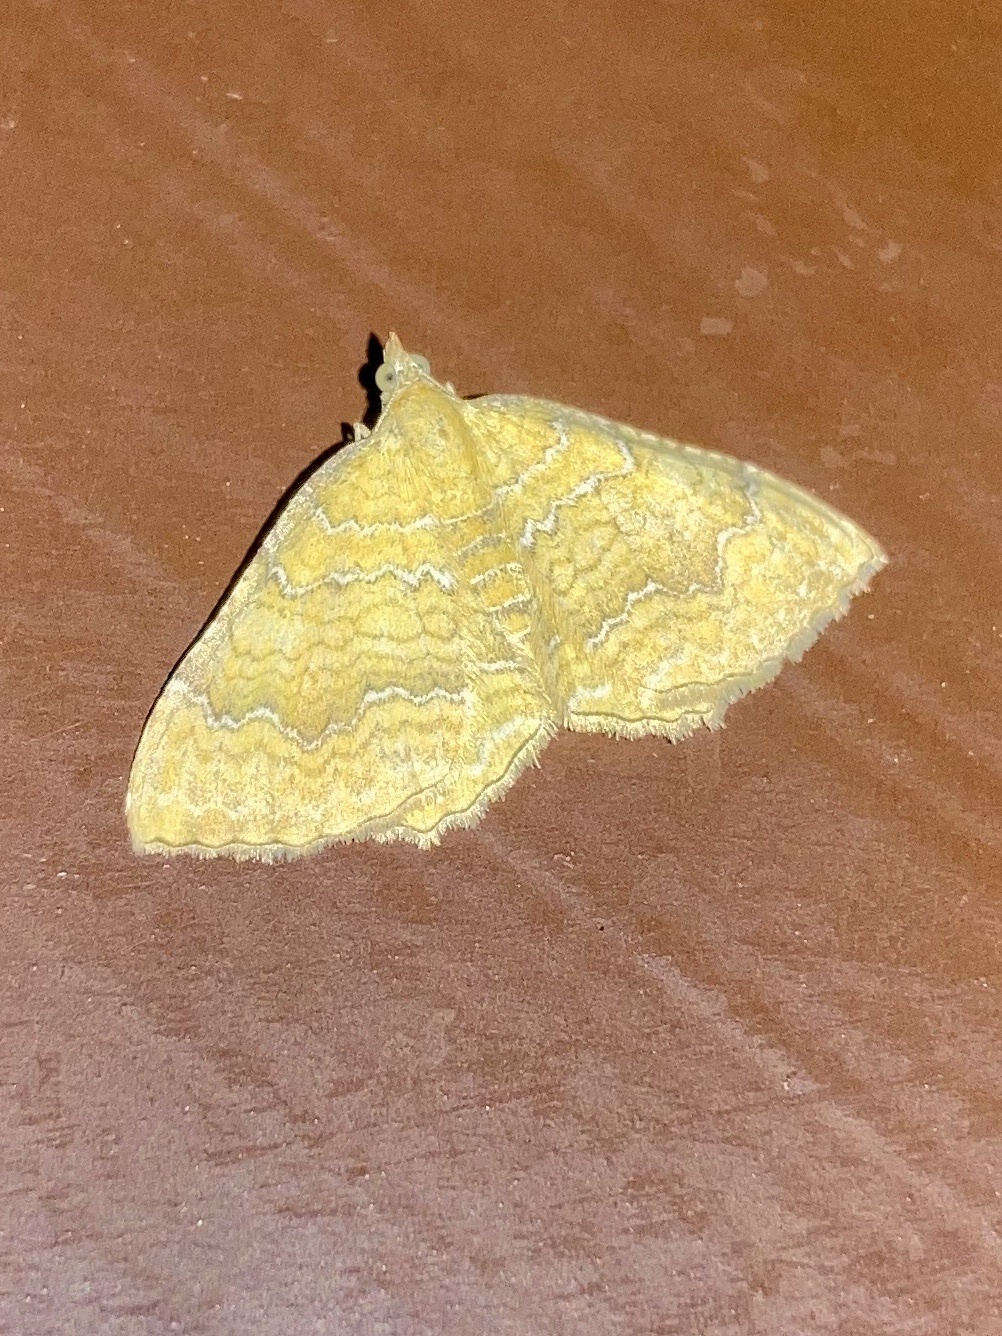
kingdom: Animalia
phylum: Arthropoda
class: Insecta
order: Lepidoptera
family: Geometridae
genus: Camptogramma
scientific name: Camptogramma bilineata
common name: Yellow shell
